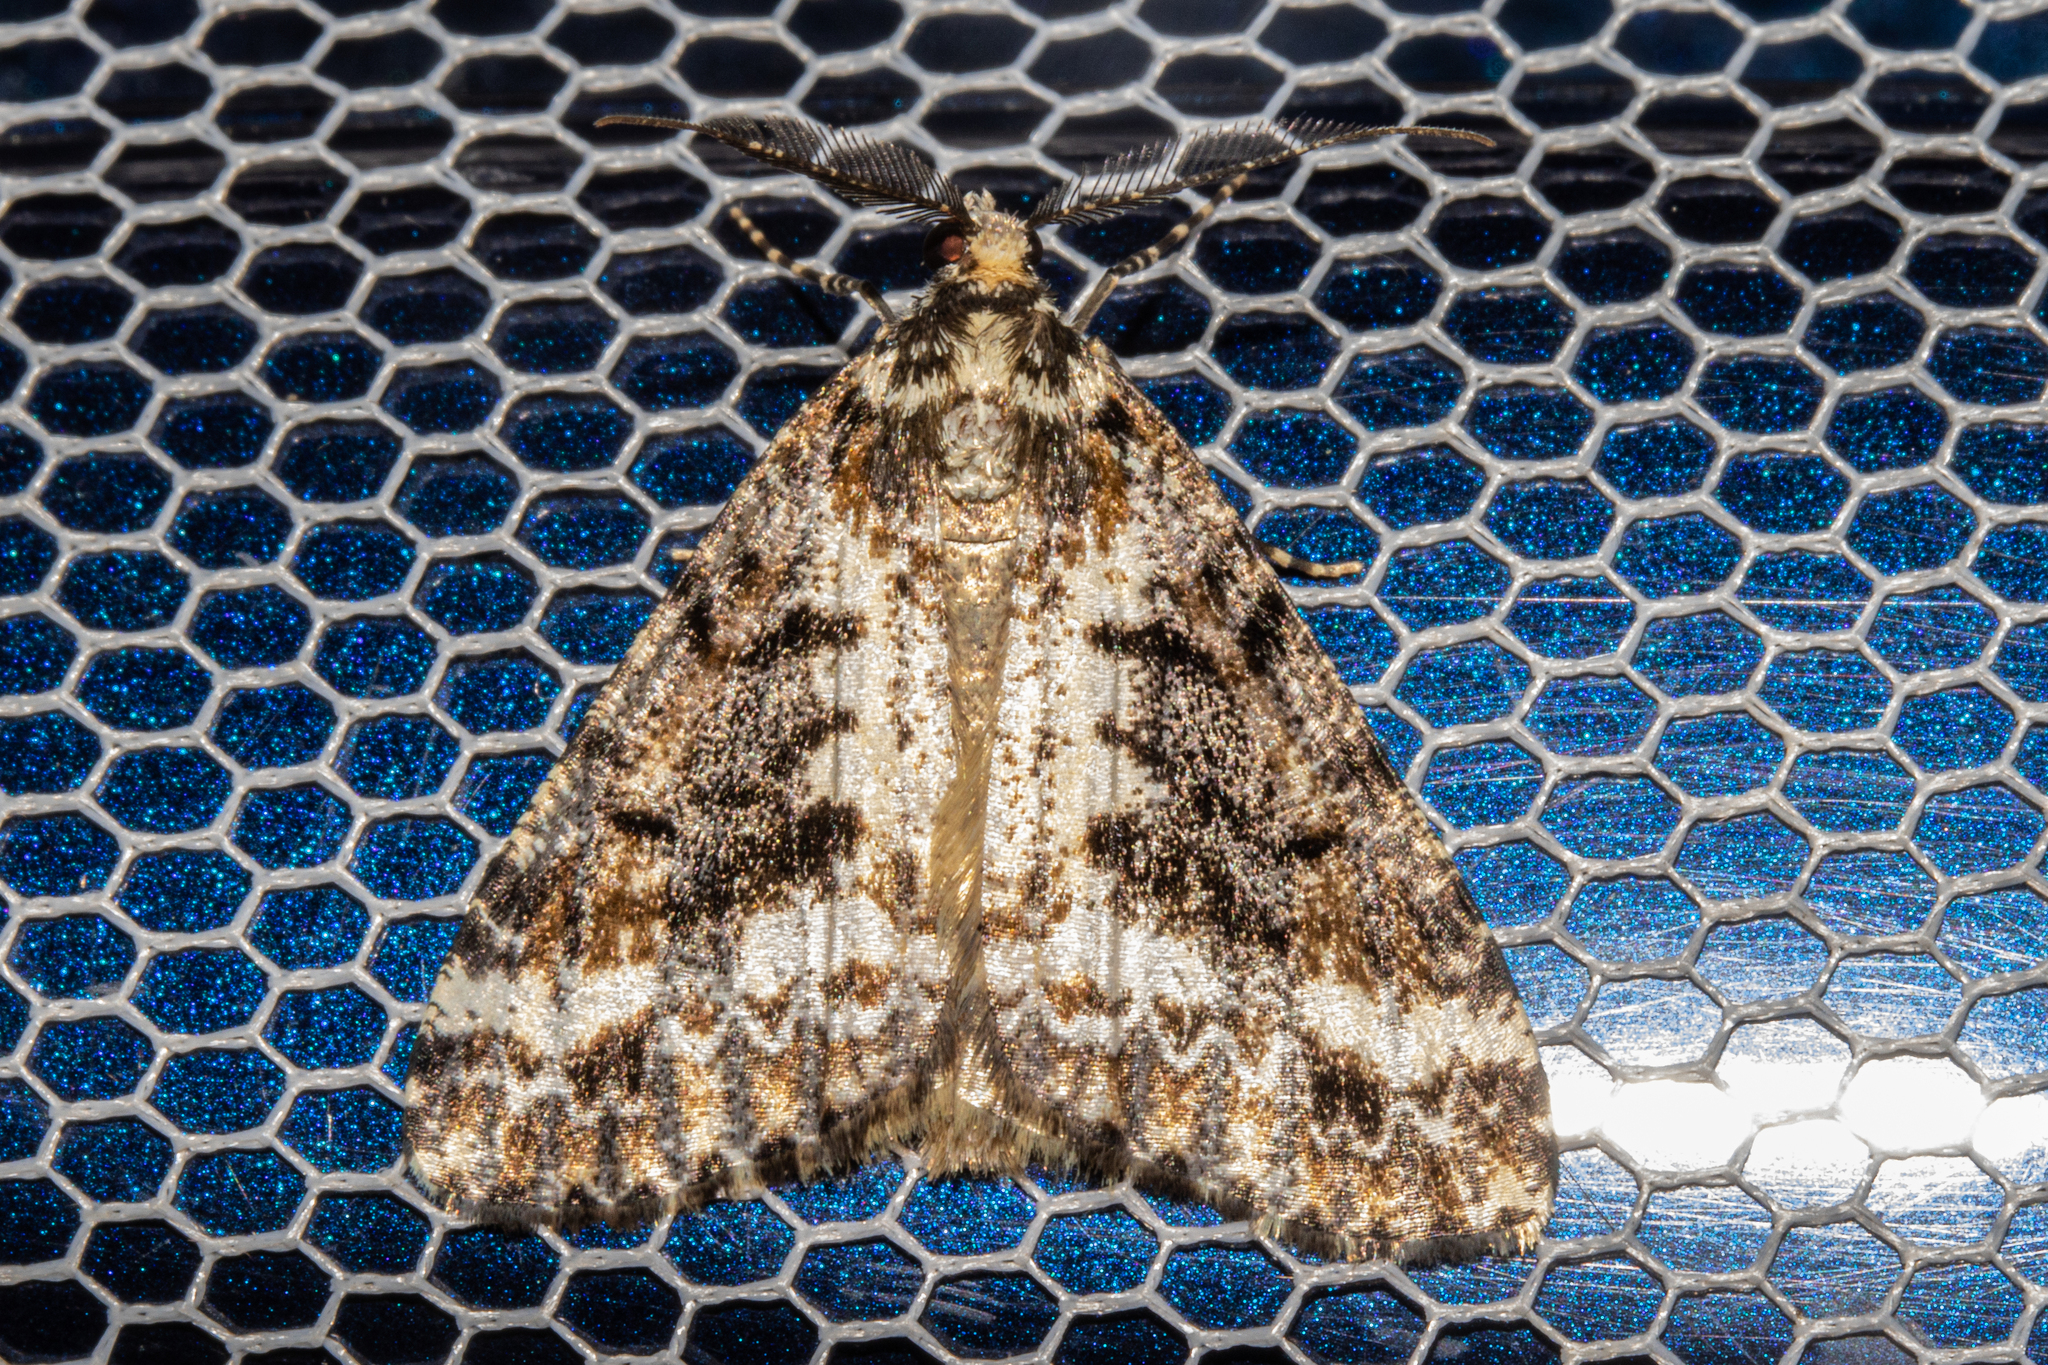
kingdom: Animalia
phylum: Arthropoda
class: Insecta
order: Lepidoptera
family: Geometridae
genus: Pseudocoremia
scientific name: Pseudocoremia leucelaea
